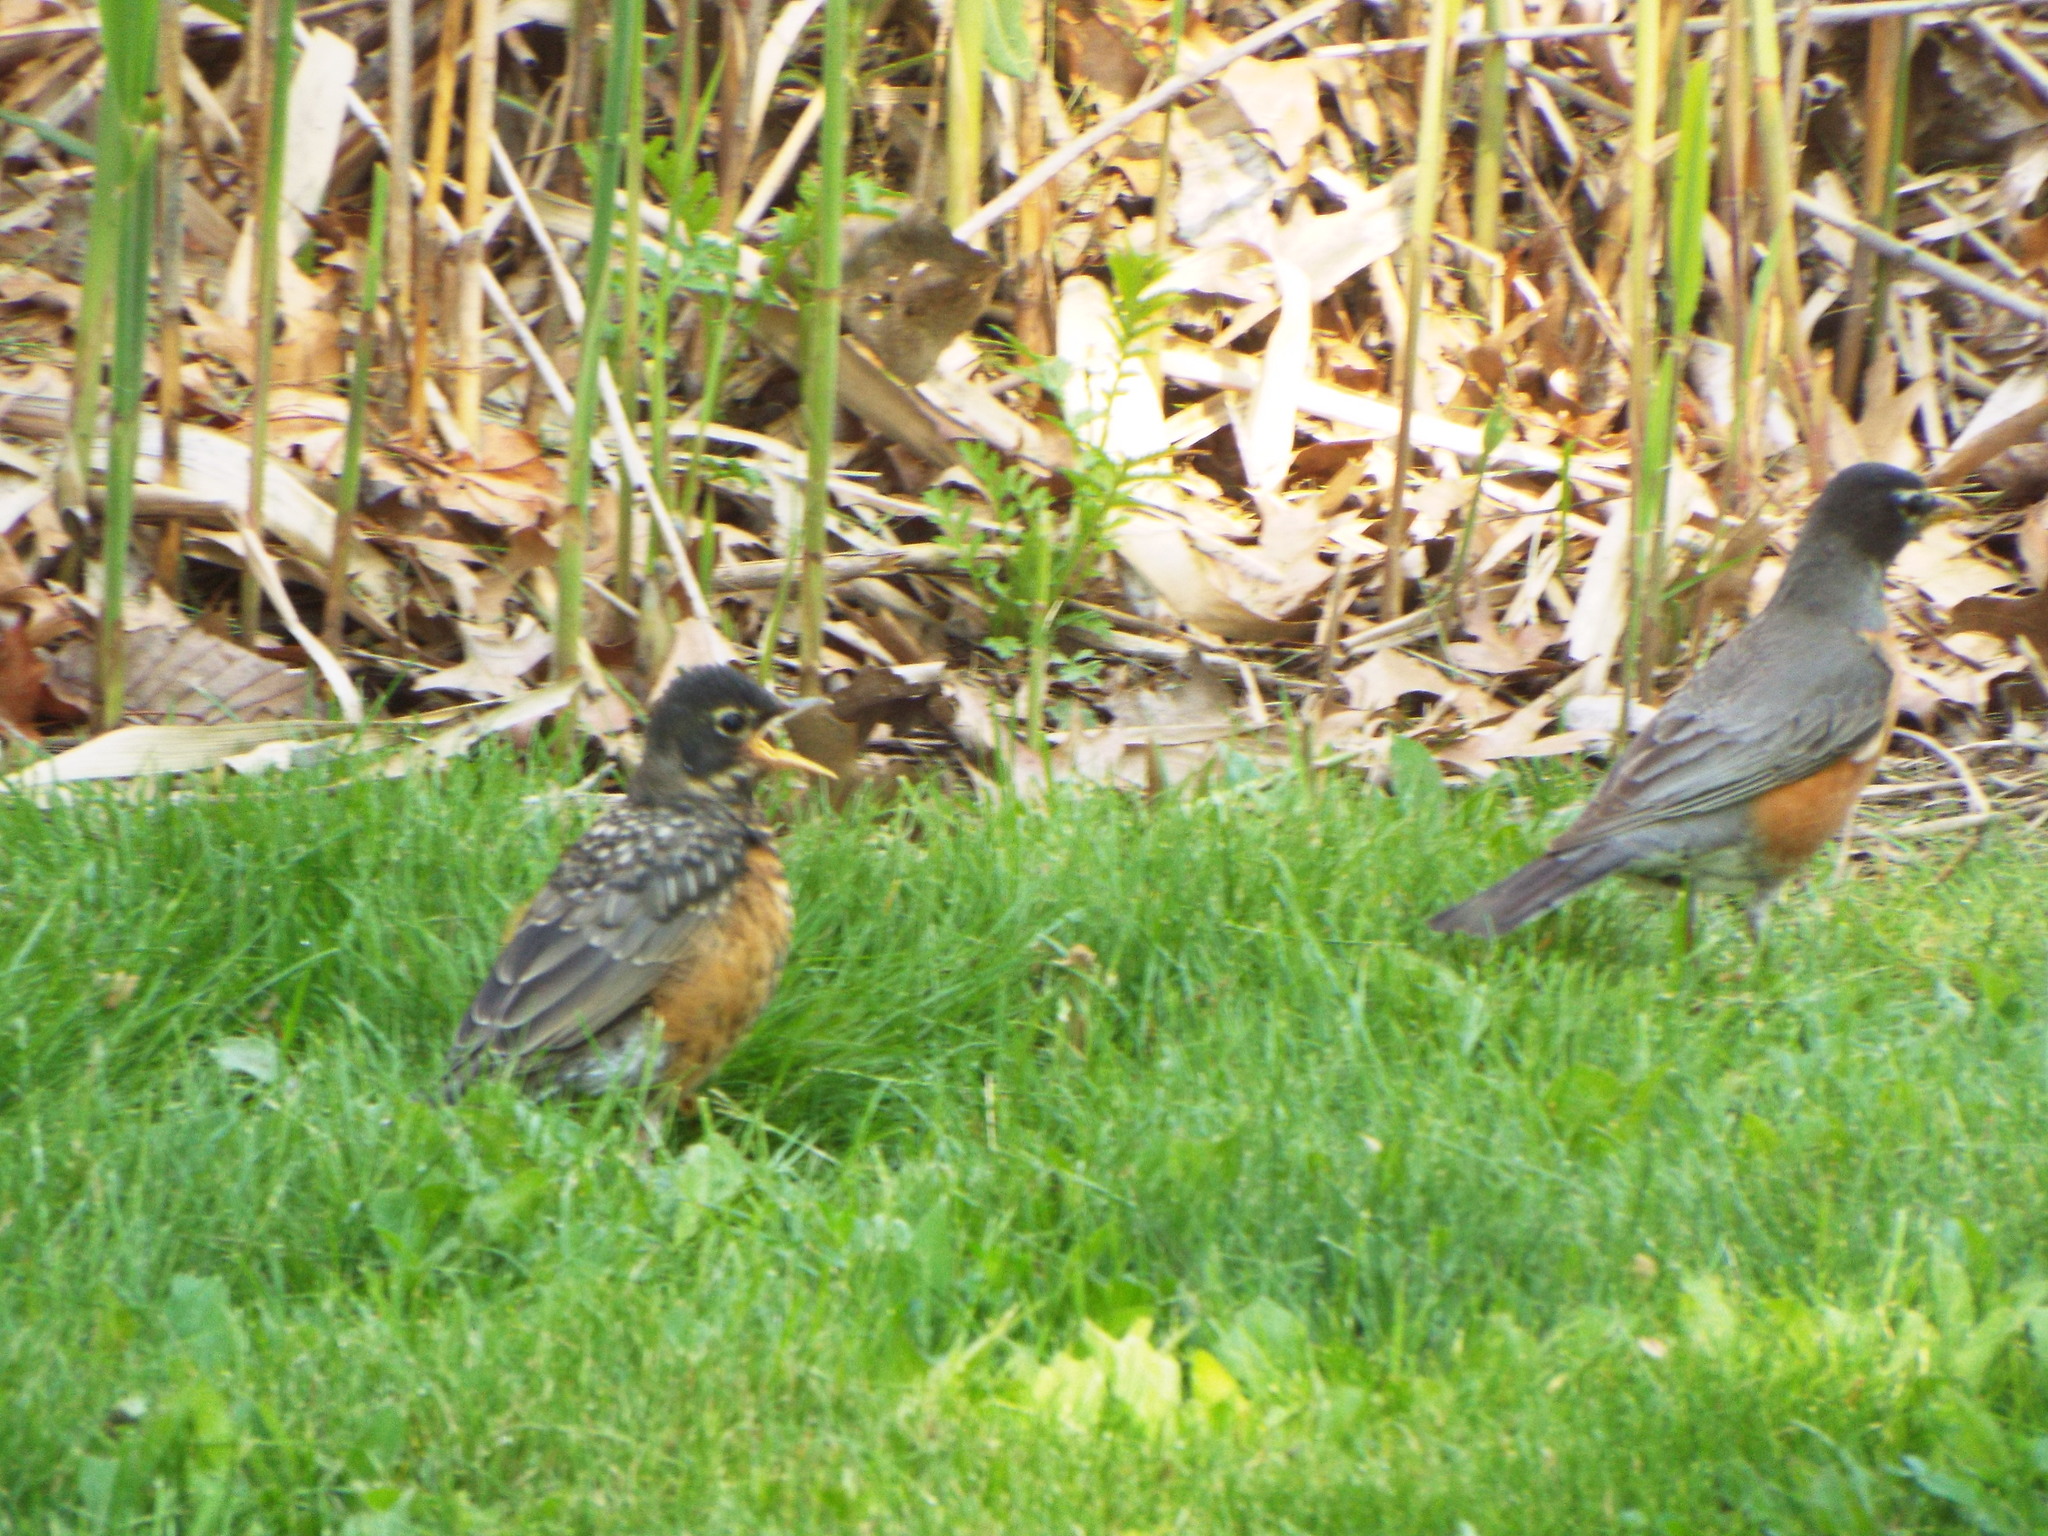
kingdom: Animalia
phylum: Chordata
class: Aves
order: Passeriformes
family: Turdidae
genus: Turdus
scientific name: Turdus migratorius
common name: American robin
